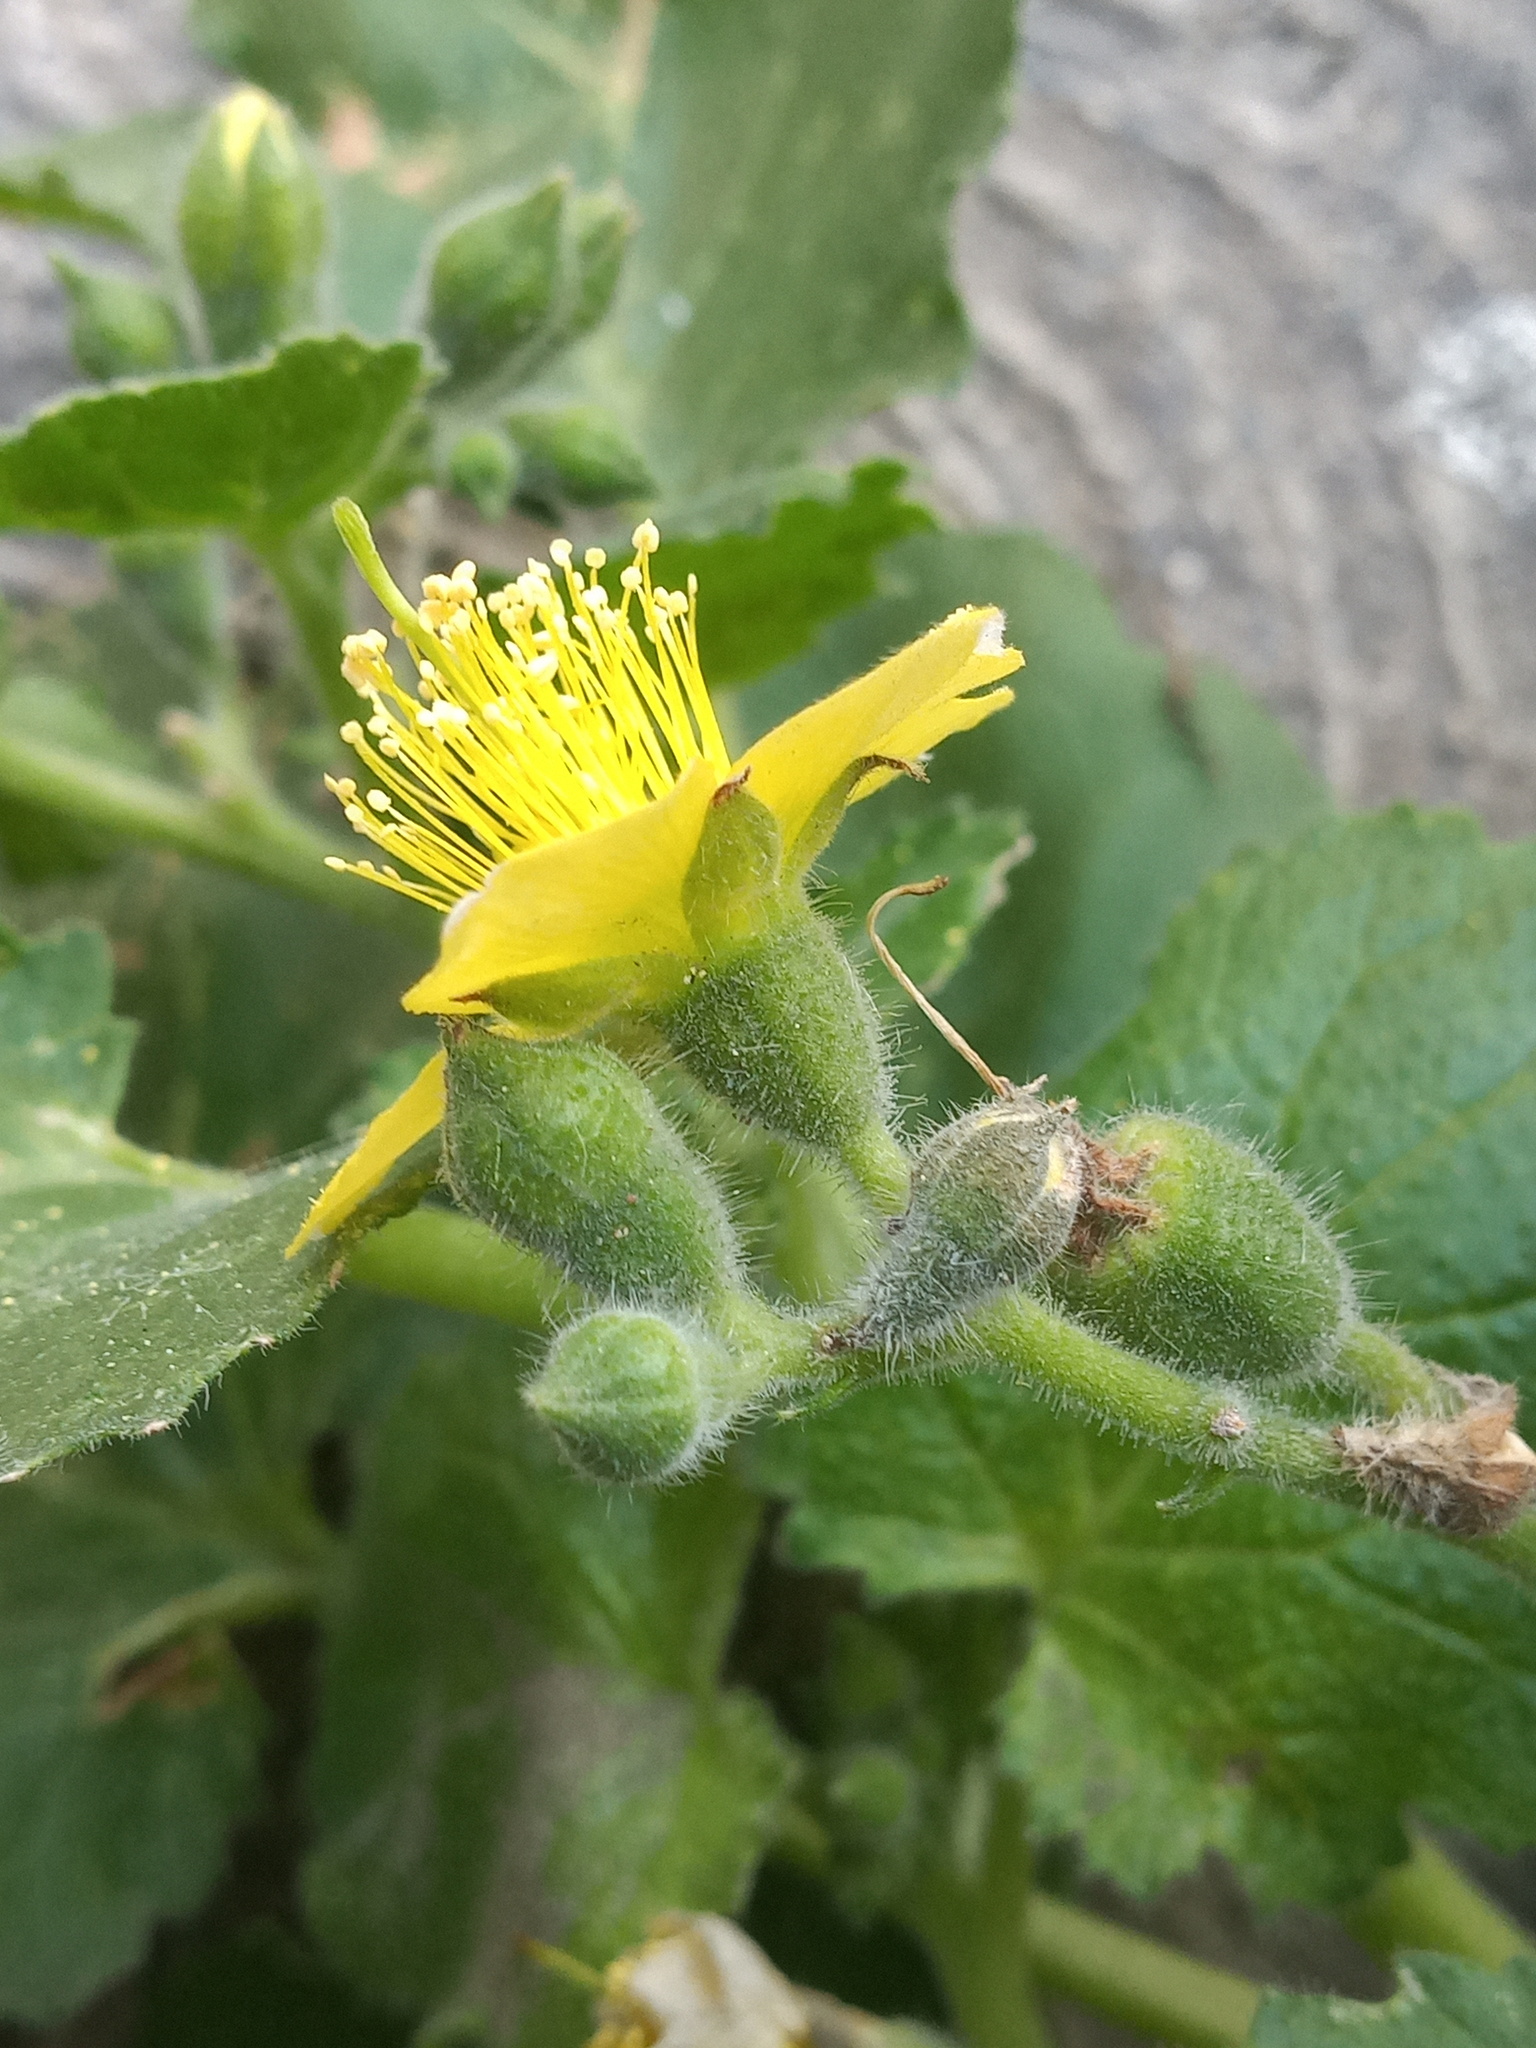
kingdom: Plantae
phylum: Tracheophyta
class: Magnoliopsida
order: Cornales
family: Loasaceae
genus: Eucnide
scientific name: Eucnide lobata
